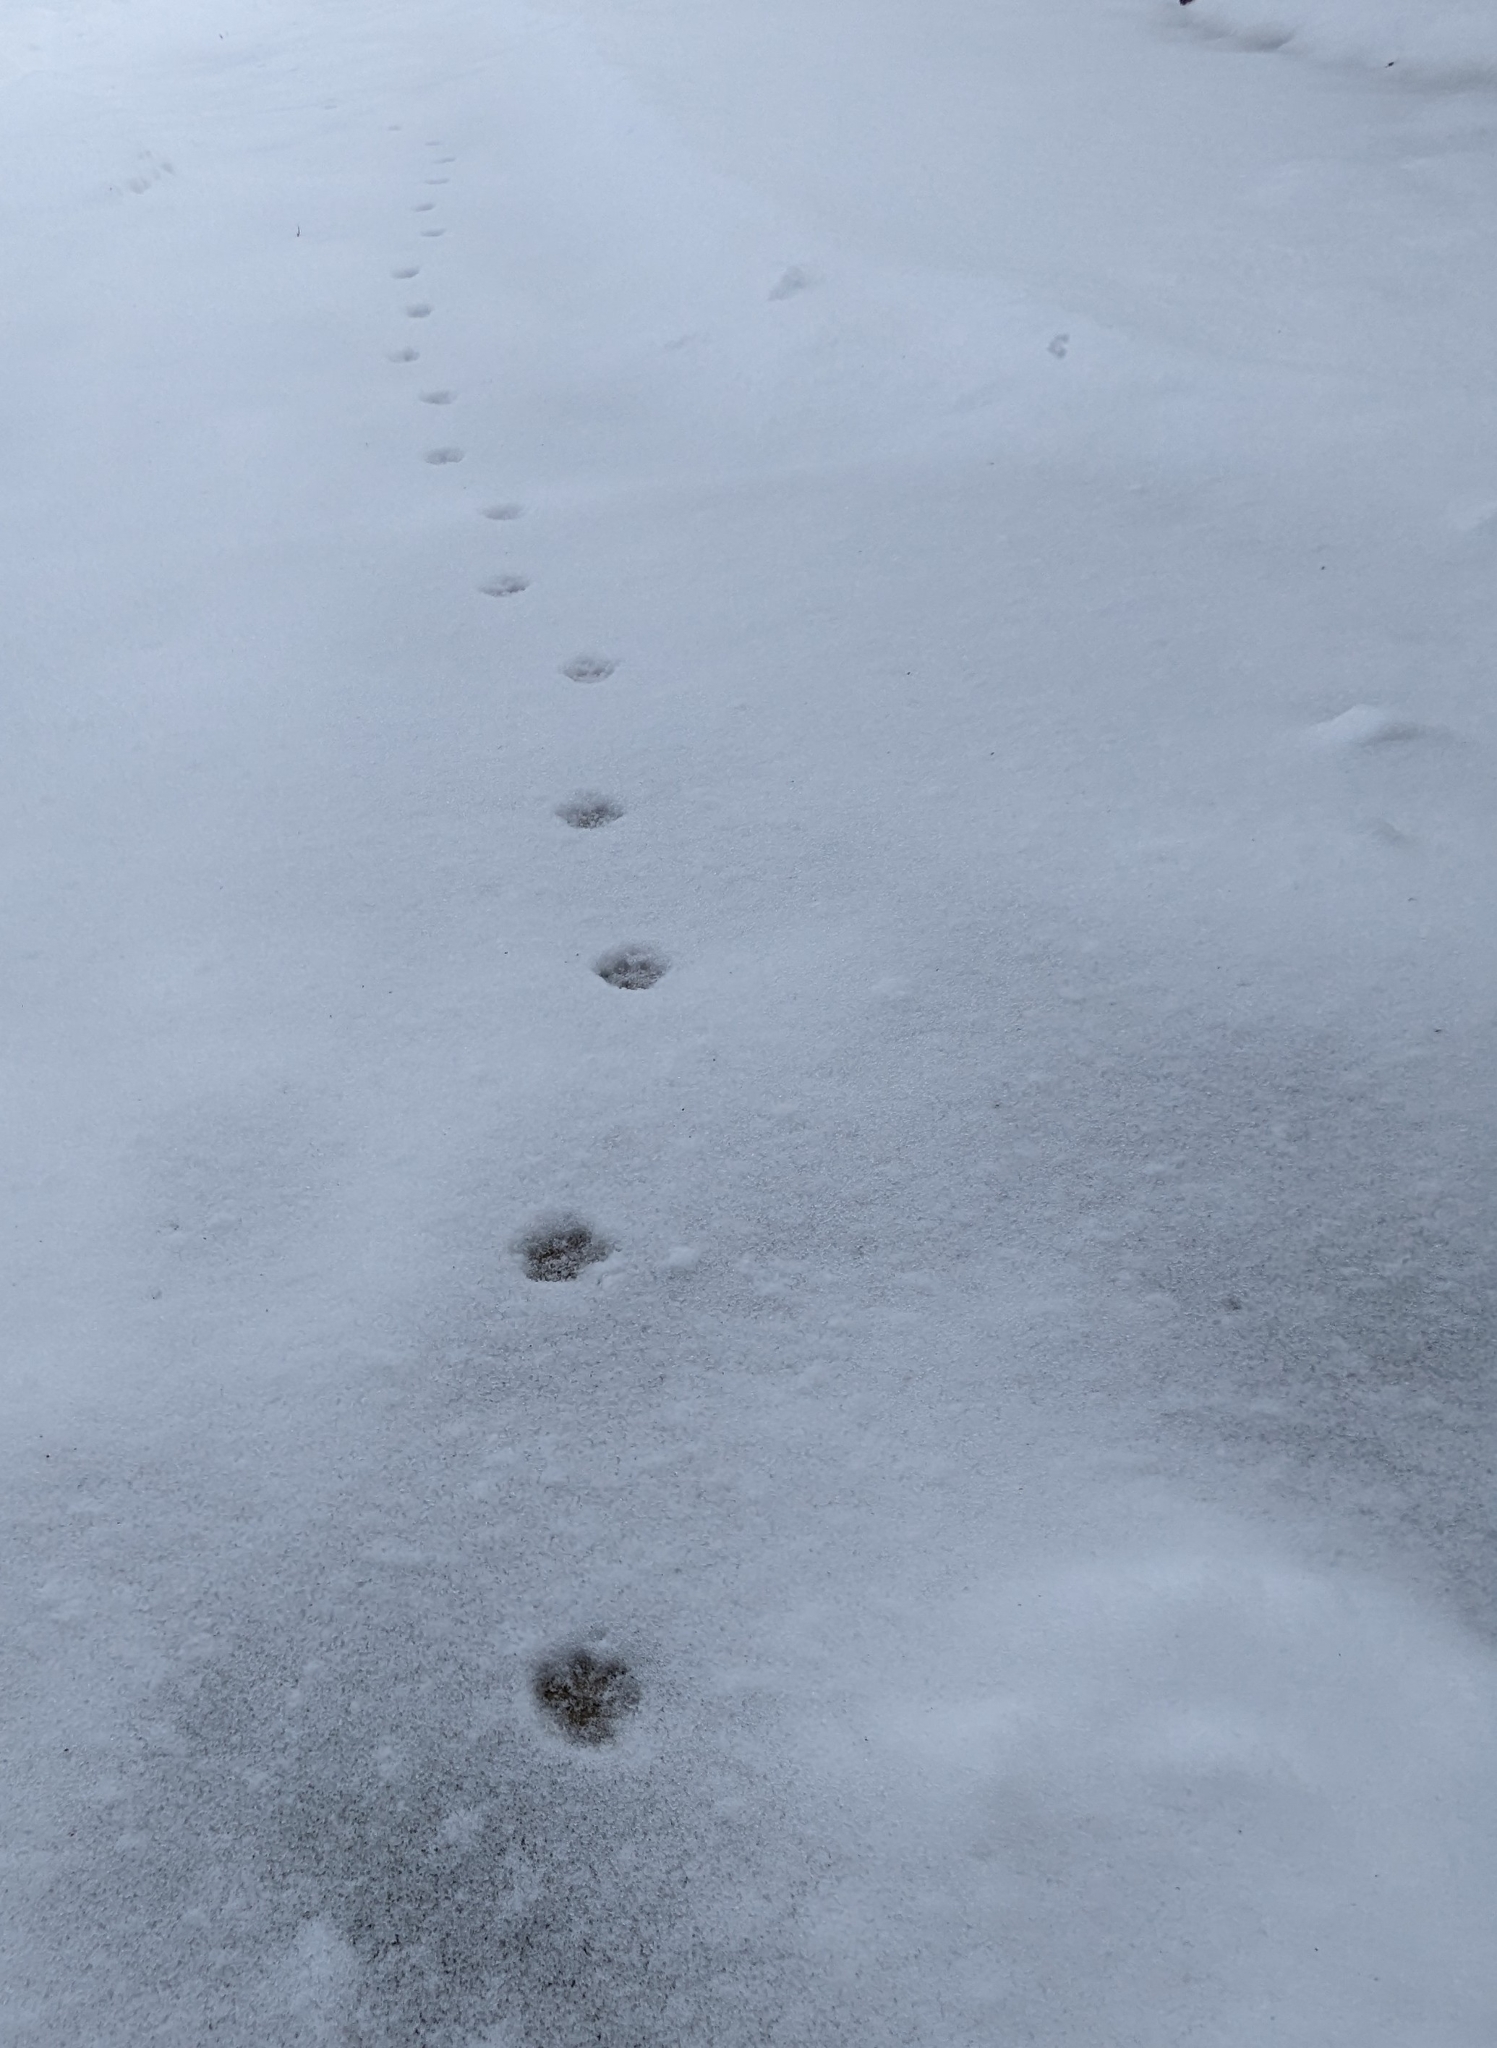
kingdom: Animalia
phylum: Chordata
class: Mammalia
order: Carnivora
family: Felidae
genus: Felis
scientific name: Felis catus
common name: Domestic cat
